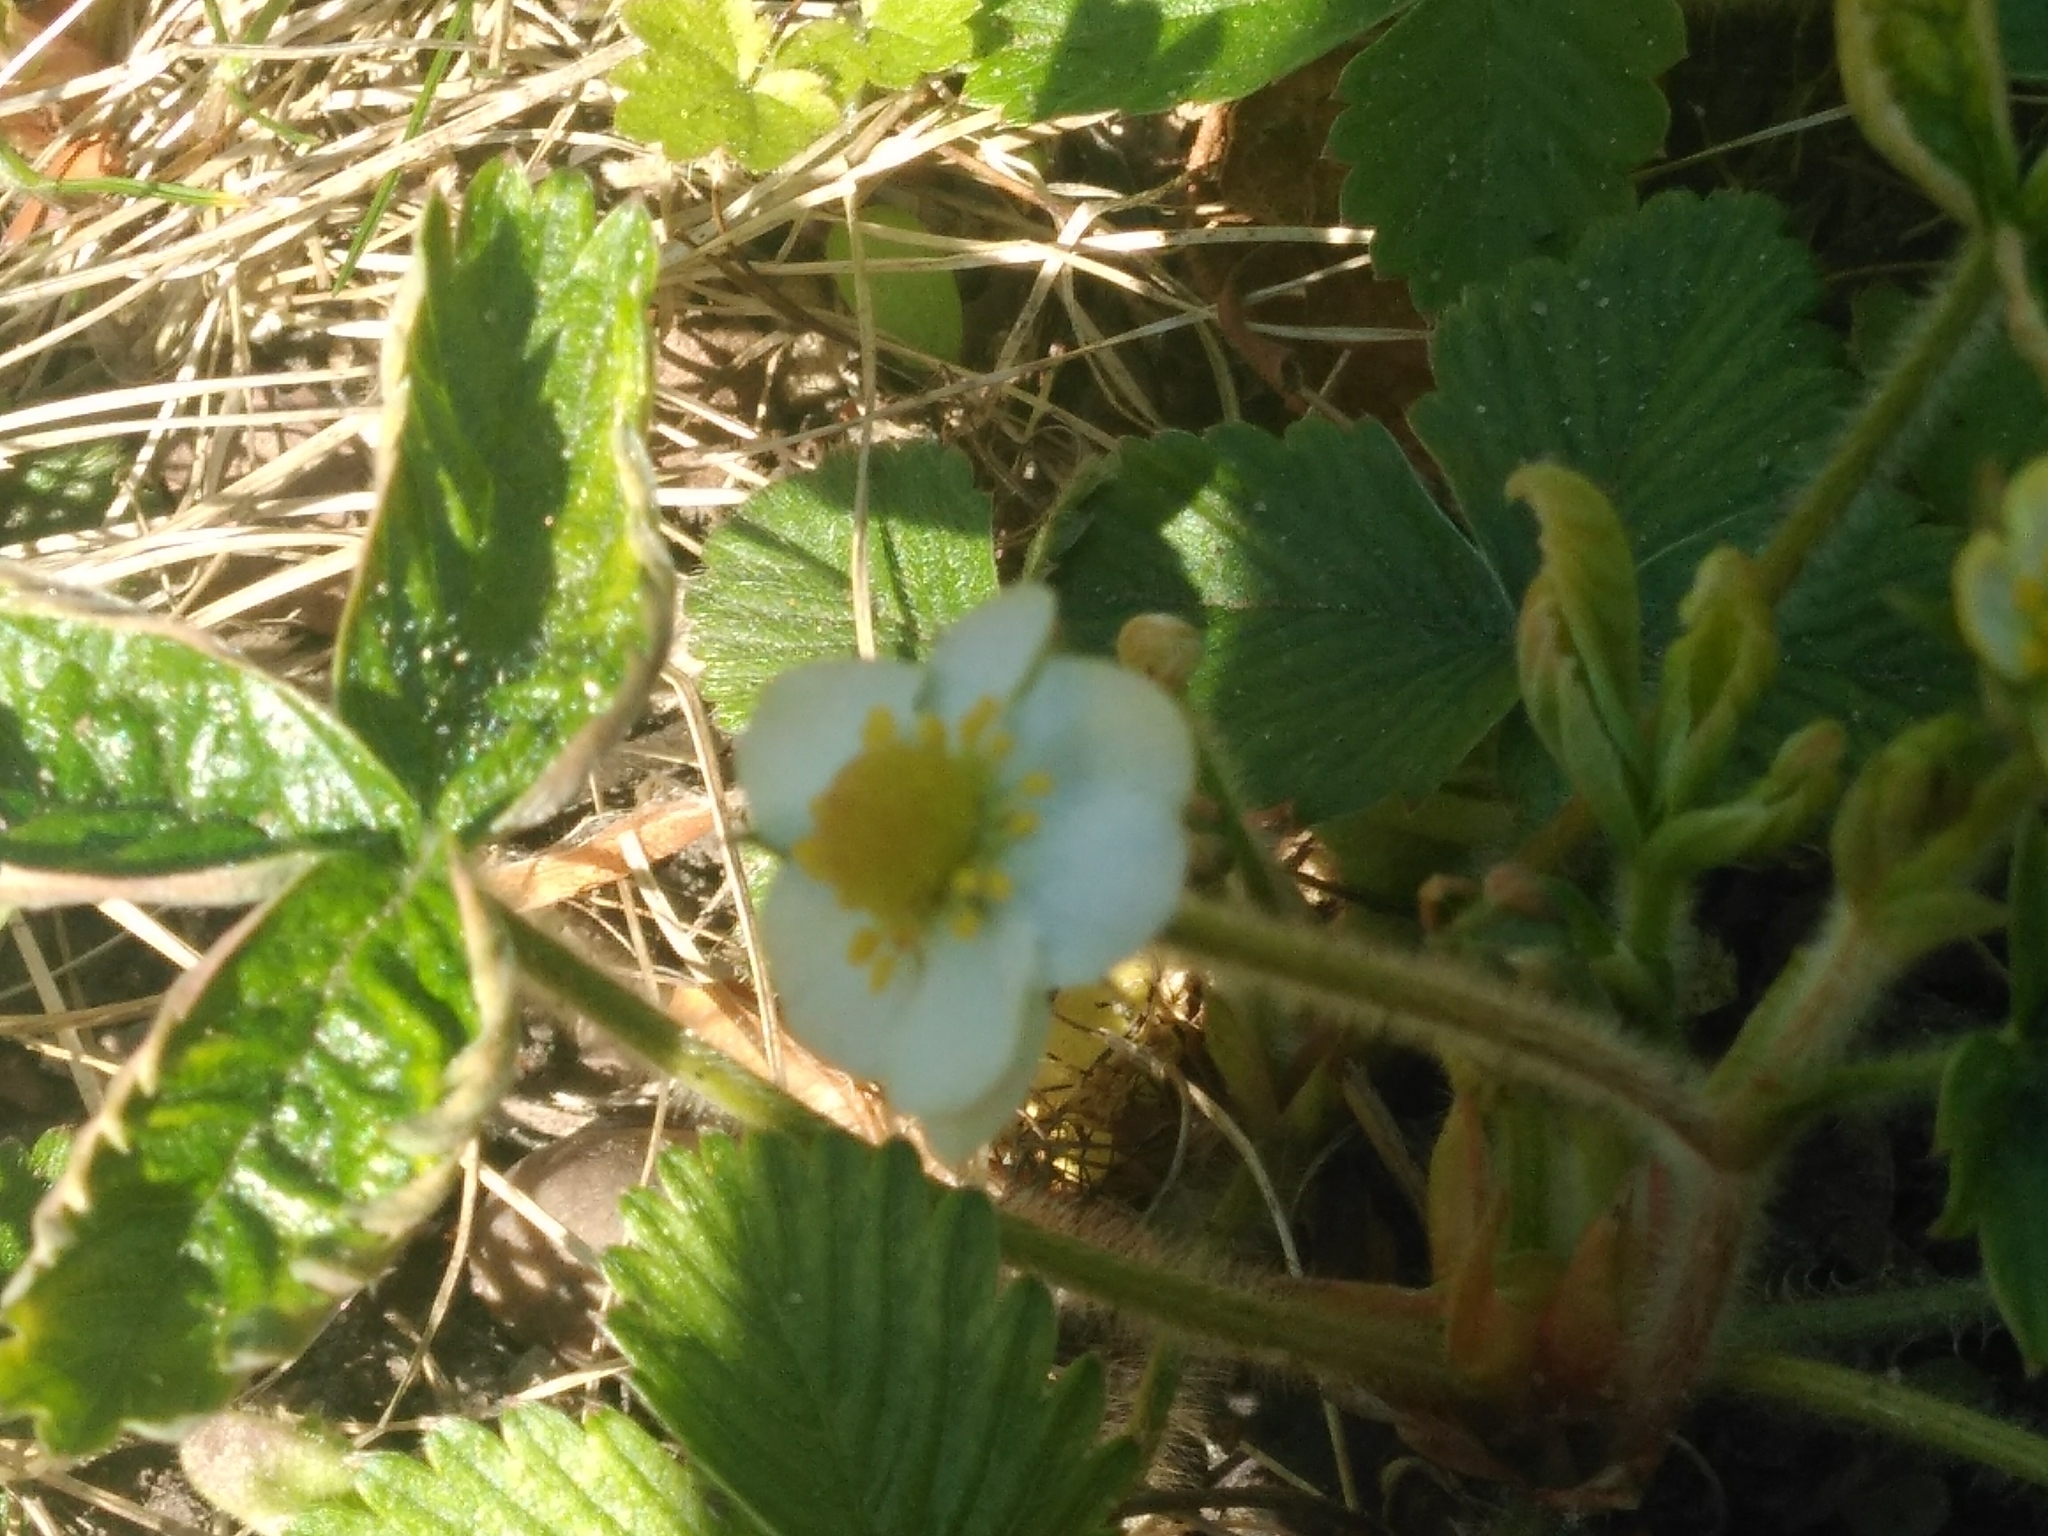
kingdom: Plantae
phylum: Tracheophyta
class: Magnoliopsida
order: Rosales
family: Rosaceae
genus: Fragaria
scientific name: Fragaria vesca
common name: Wild strawberry
